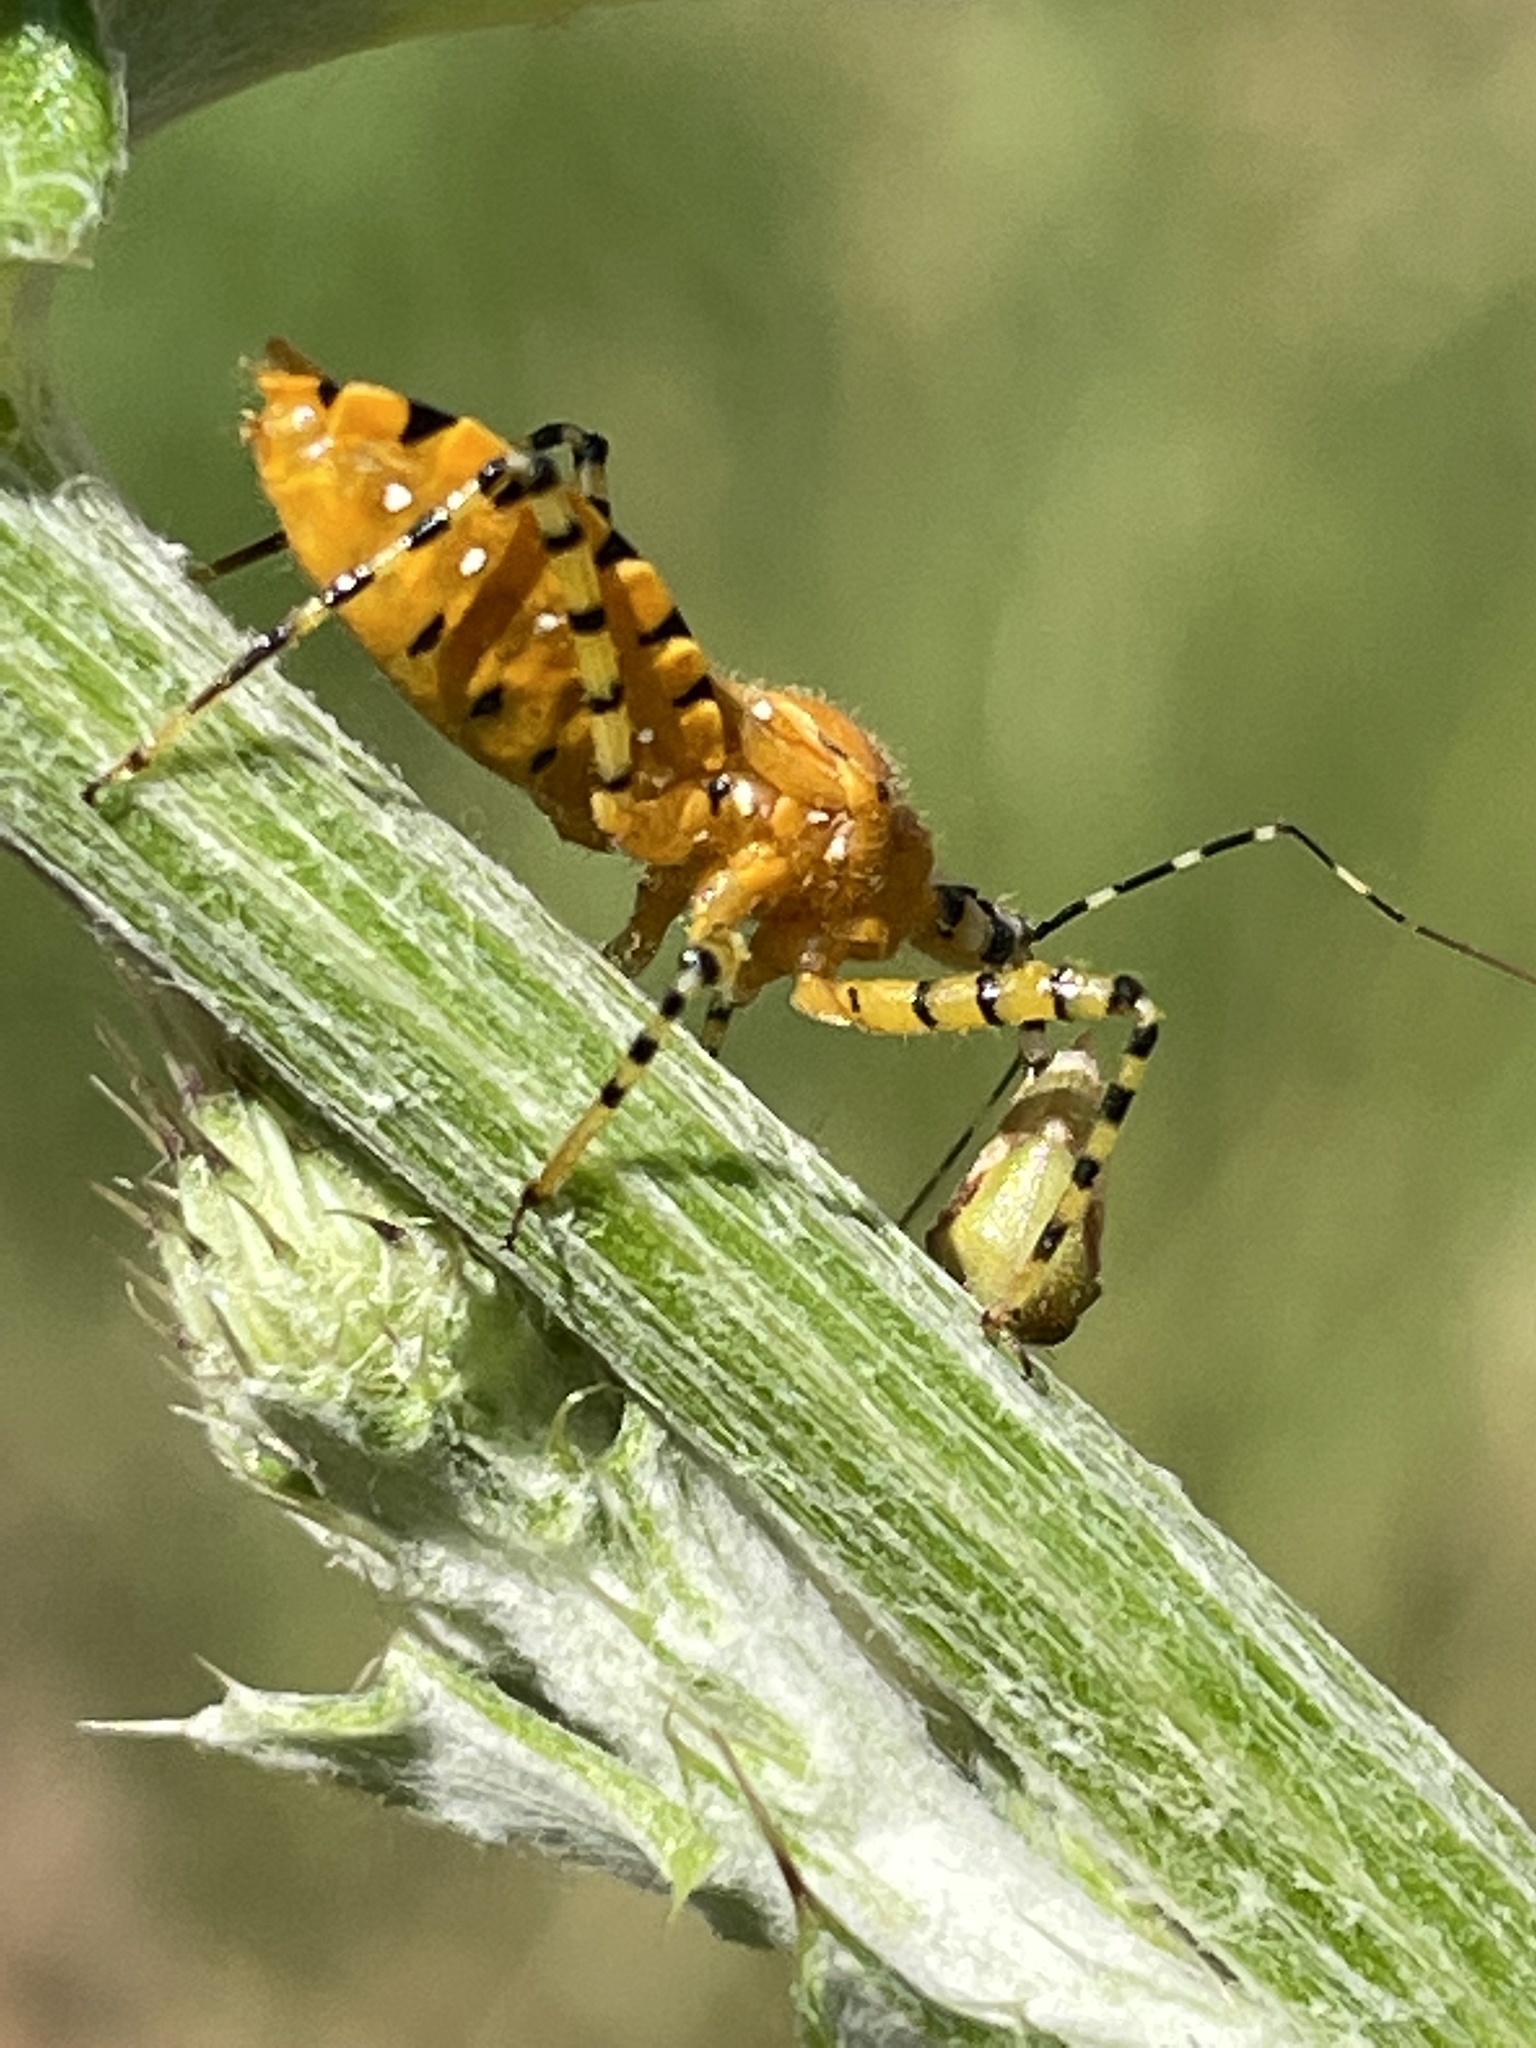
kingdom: Animalia
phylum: Arthropoda
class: Insecta
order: Hemiptera
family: Reduviidae
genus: Pselliopus
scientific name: Pselliopus barberi
